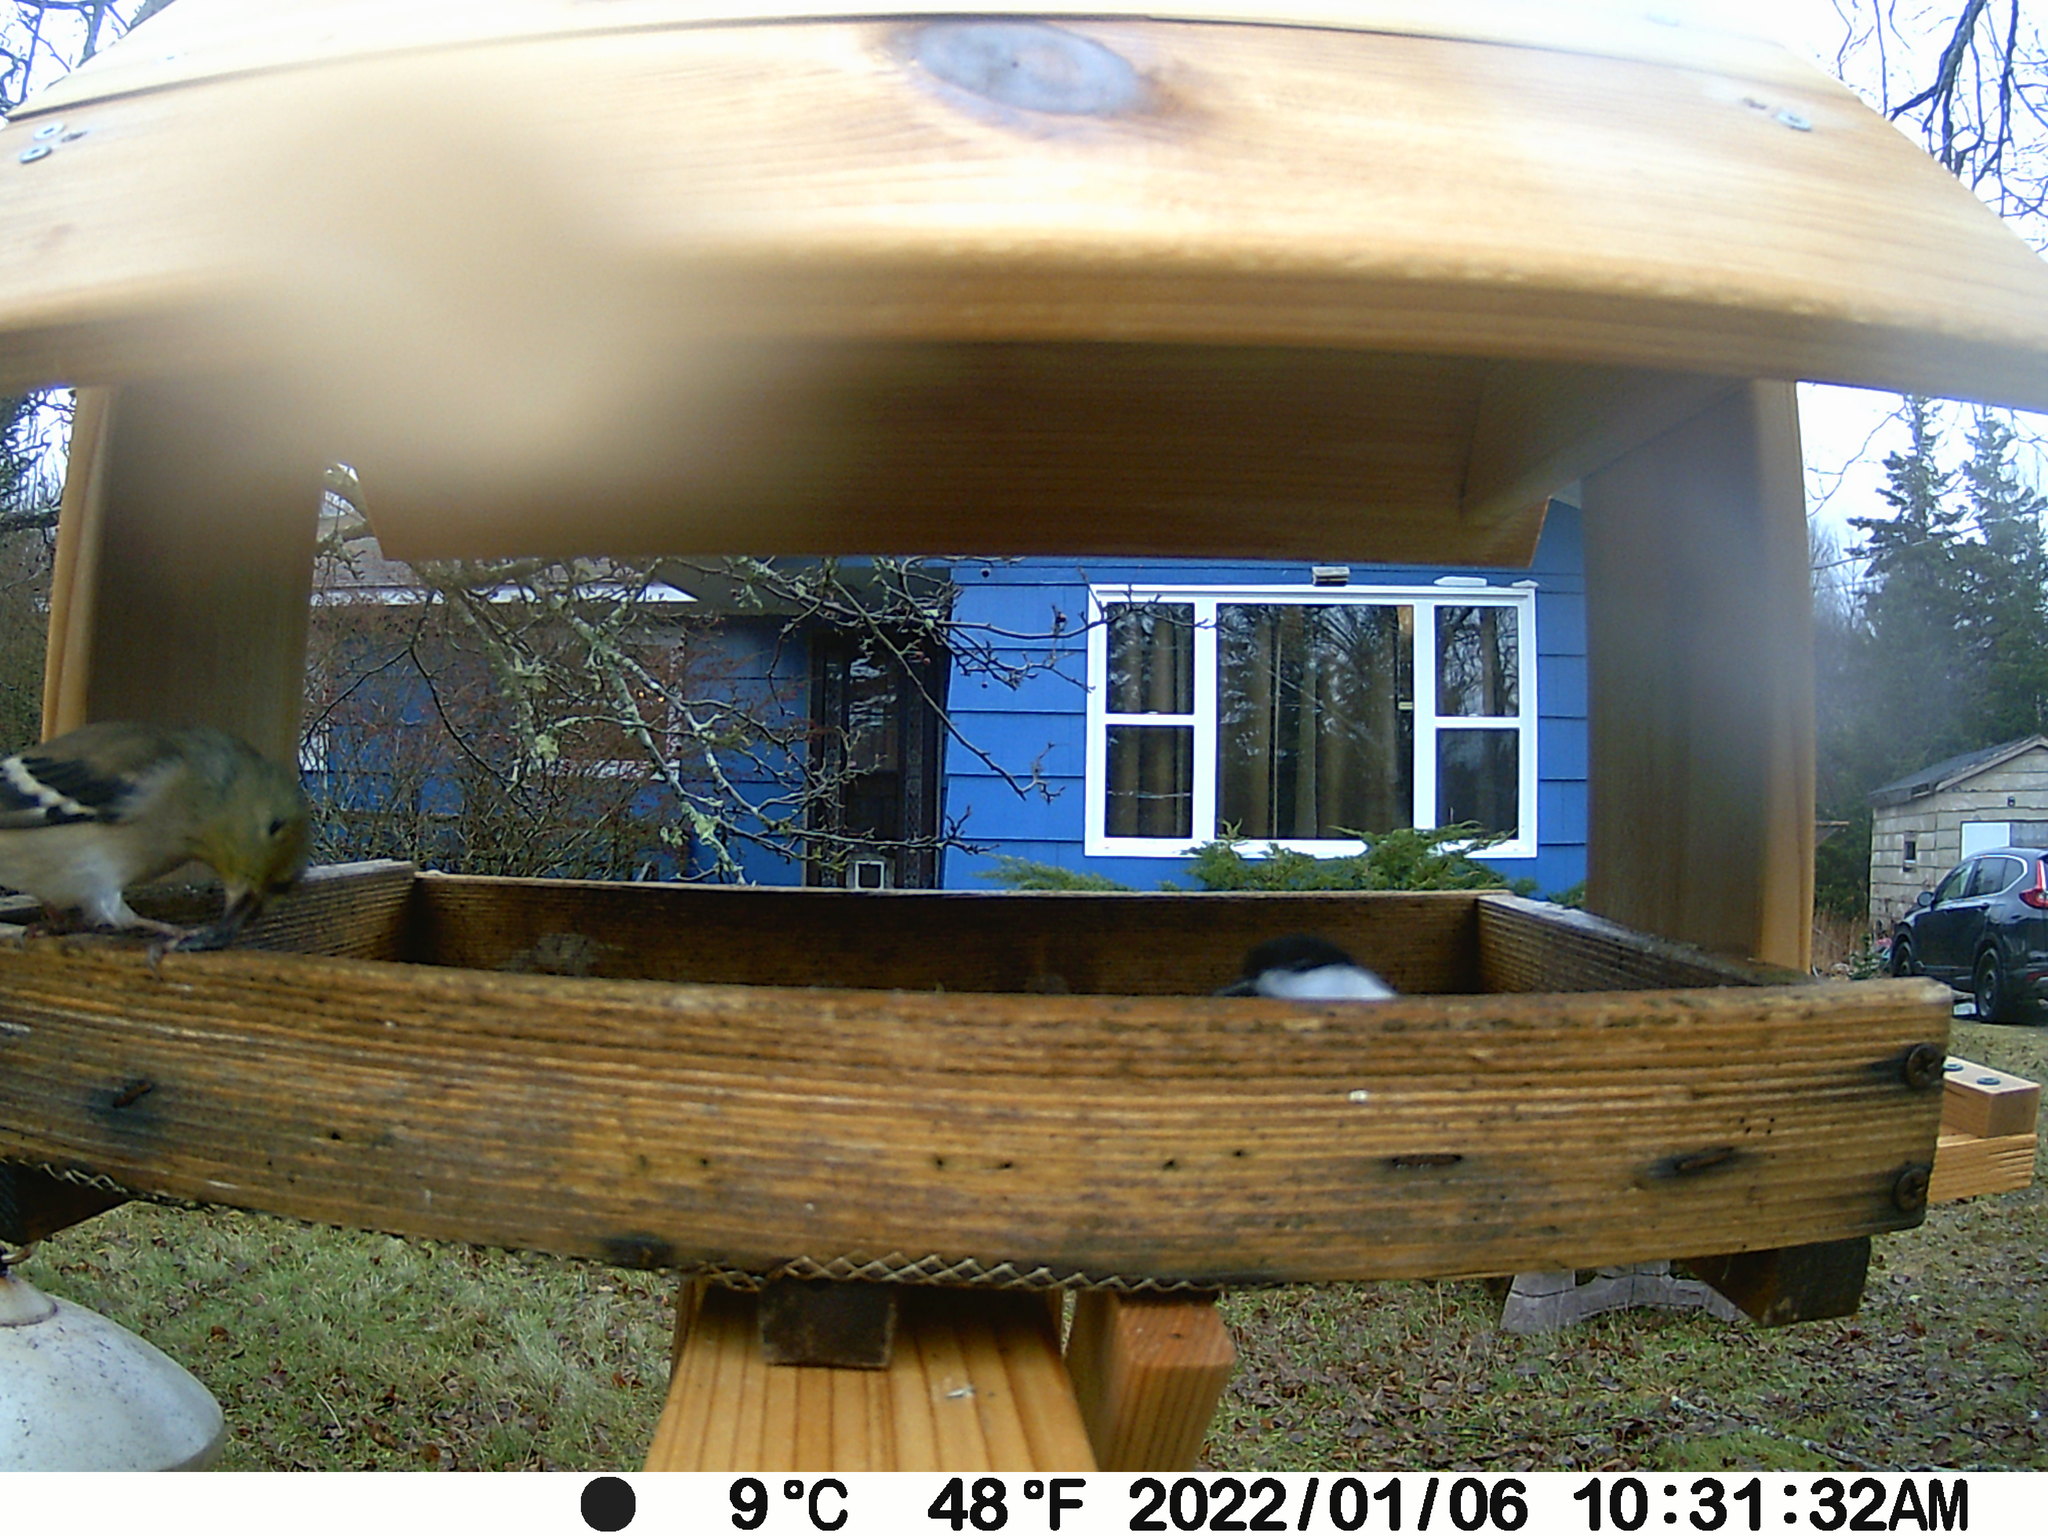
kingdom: Animalia
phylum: Chordata
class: Aves
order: Passeriformes
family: Fringillidae
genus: Spinus
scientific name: Spinus tristis
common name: American goldfinch
